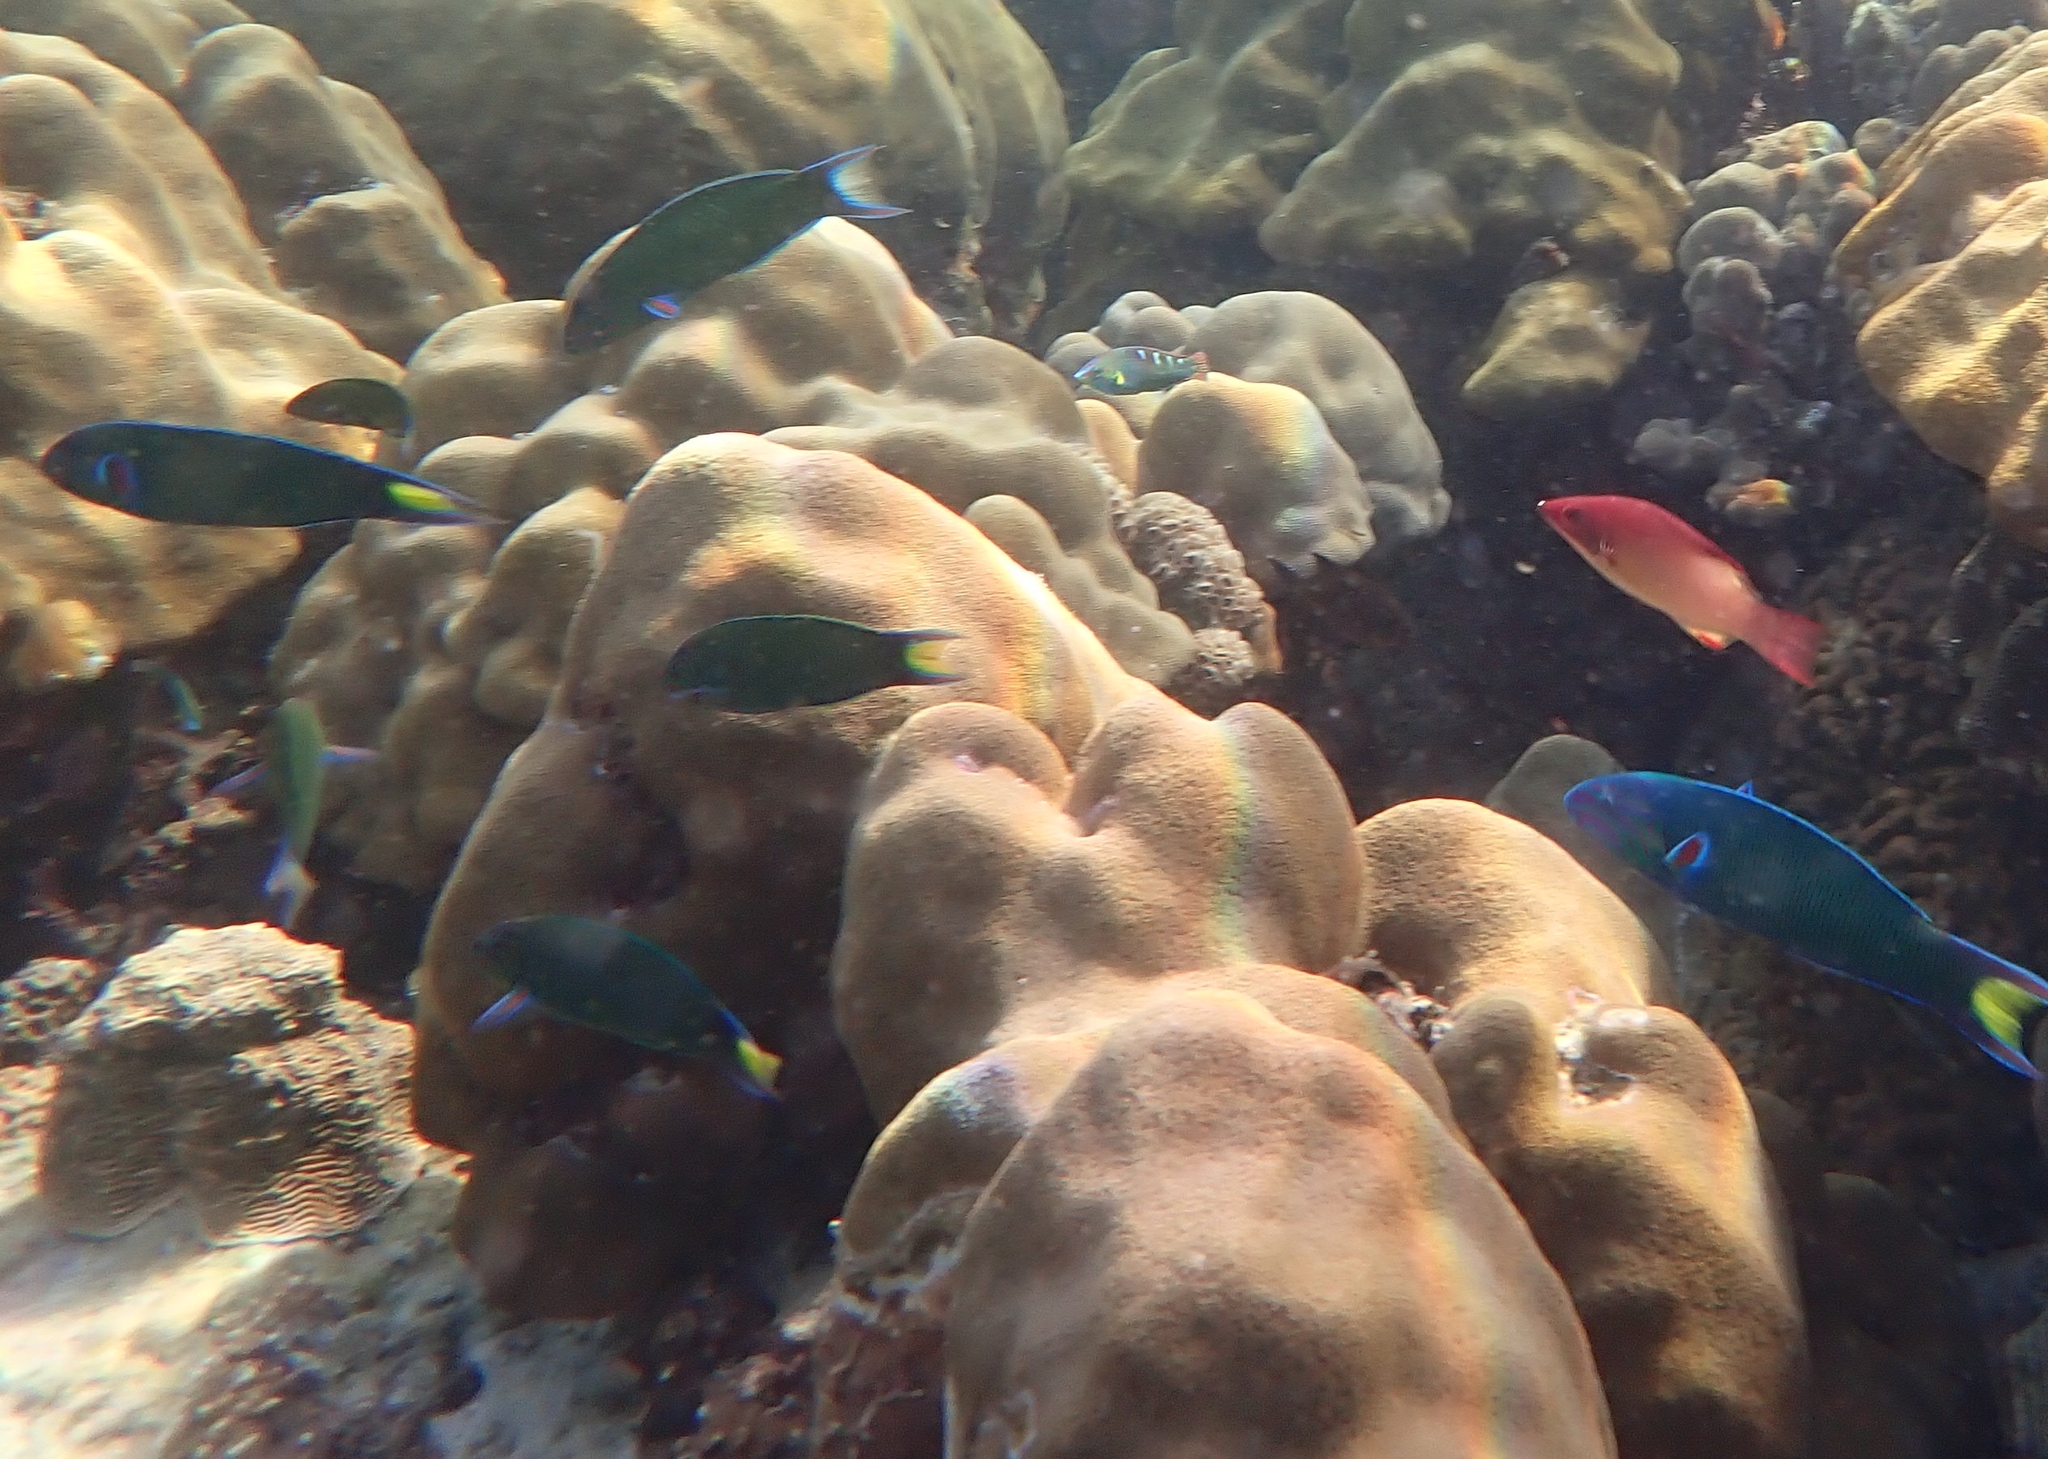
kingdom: Animalia
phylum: Chordata
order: Perciformes
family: Labridae
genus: Thalassoma
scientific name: Thalassoma lunare
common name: Blue wrasse
